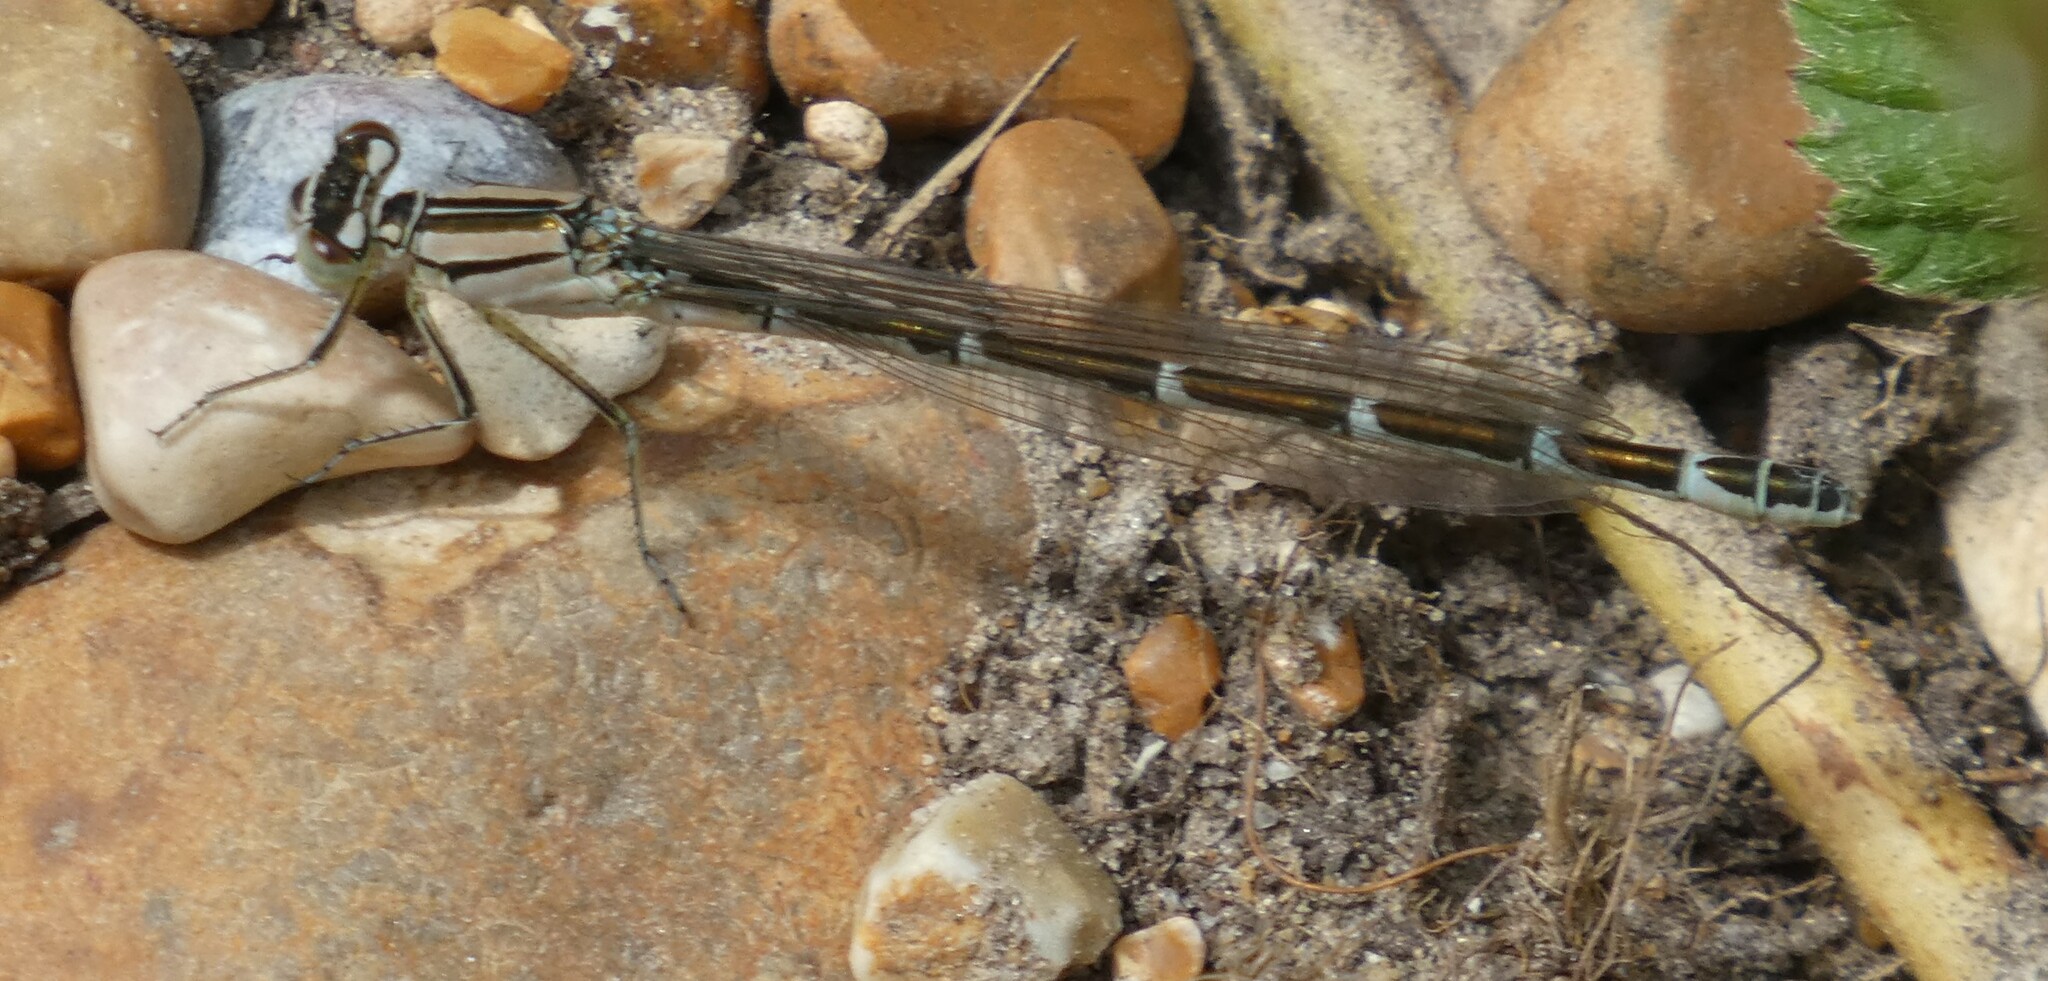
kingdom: Animalia
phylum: Arthropoda
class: Insecta
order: Odonata
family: Coenagrionidae
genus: Enallagma
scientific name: Enallagma cyathigerum
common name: Common blue damselfly
